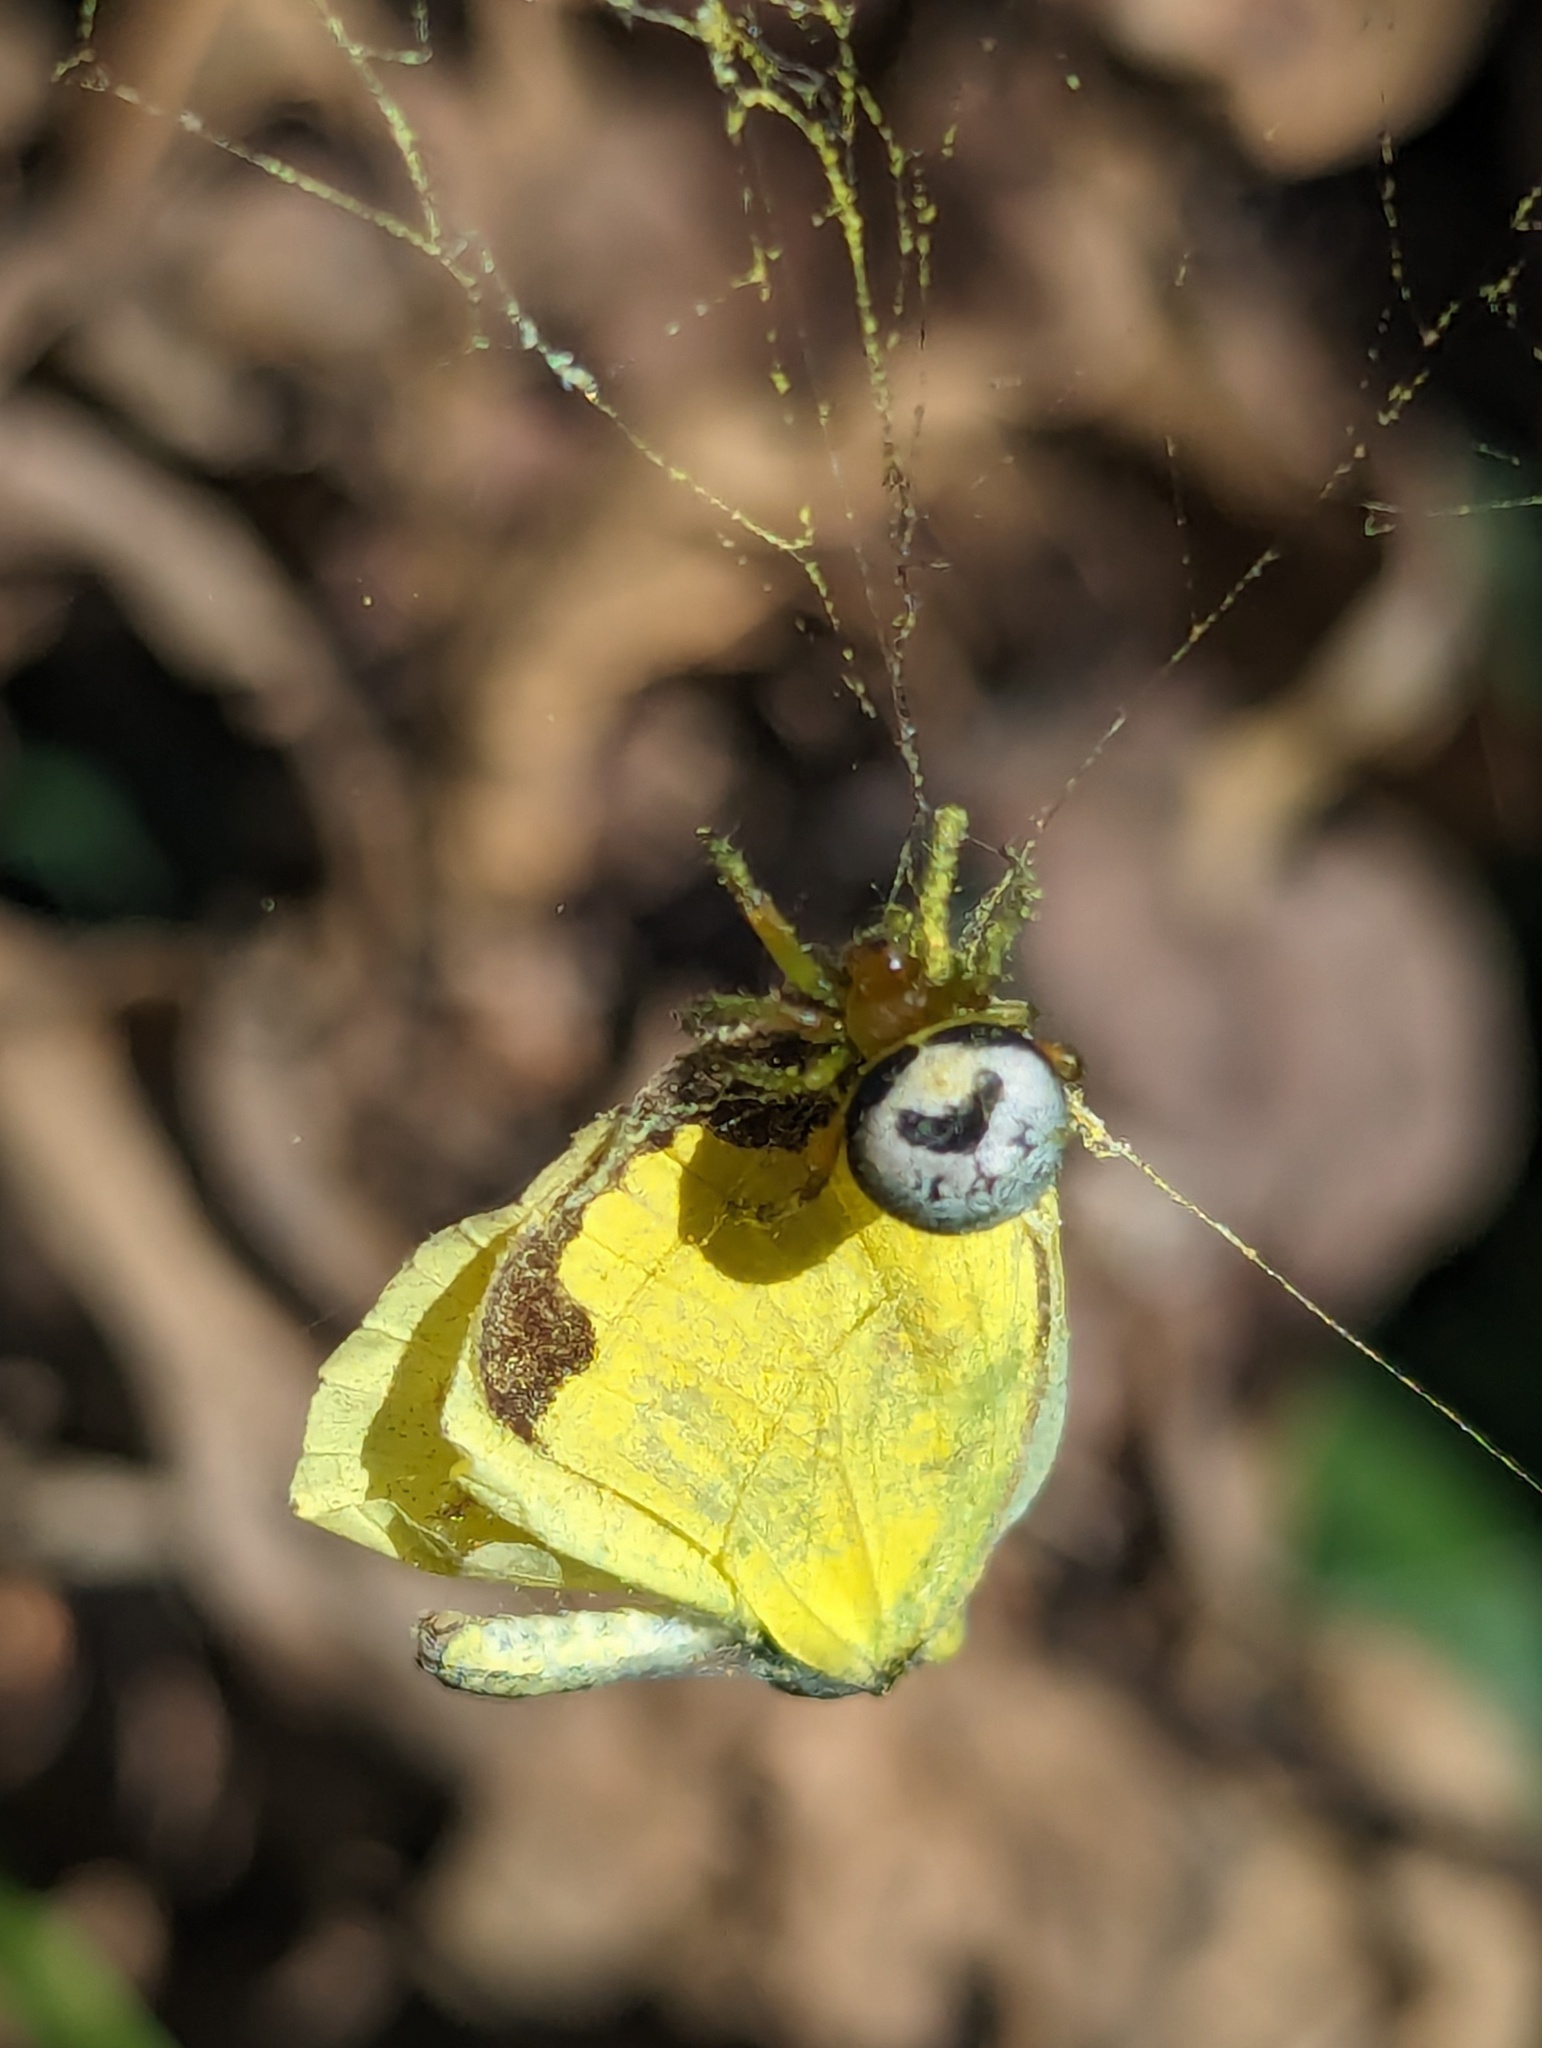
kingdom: Animalia
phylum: Arthropoda
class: Arachnida
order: Araneae
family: Araneidae
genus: Bijoaraneus
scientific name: Bijoaraneus mitificus
